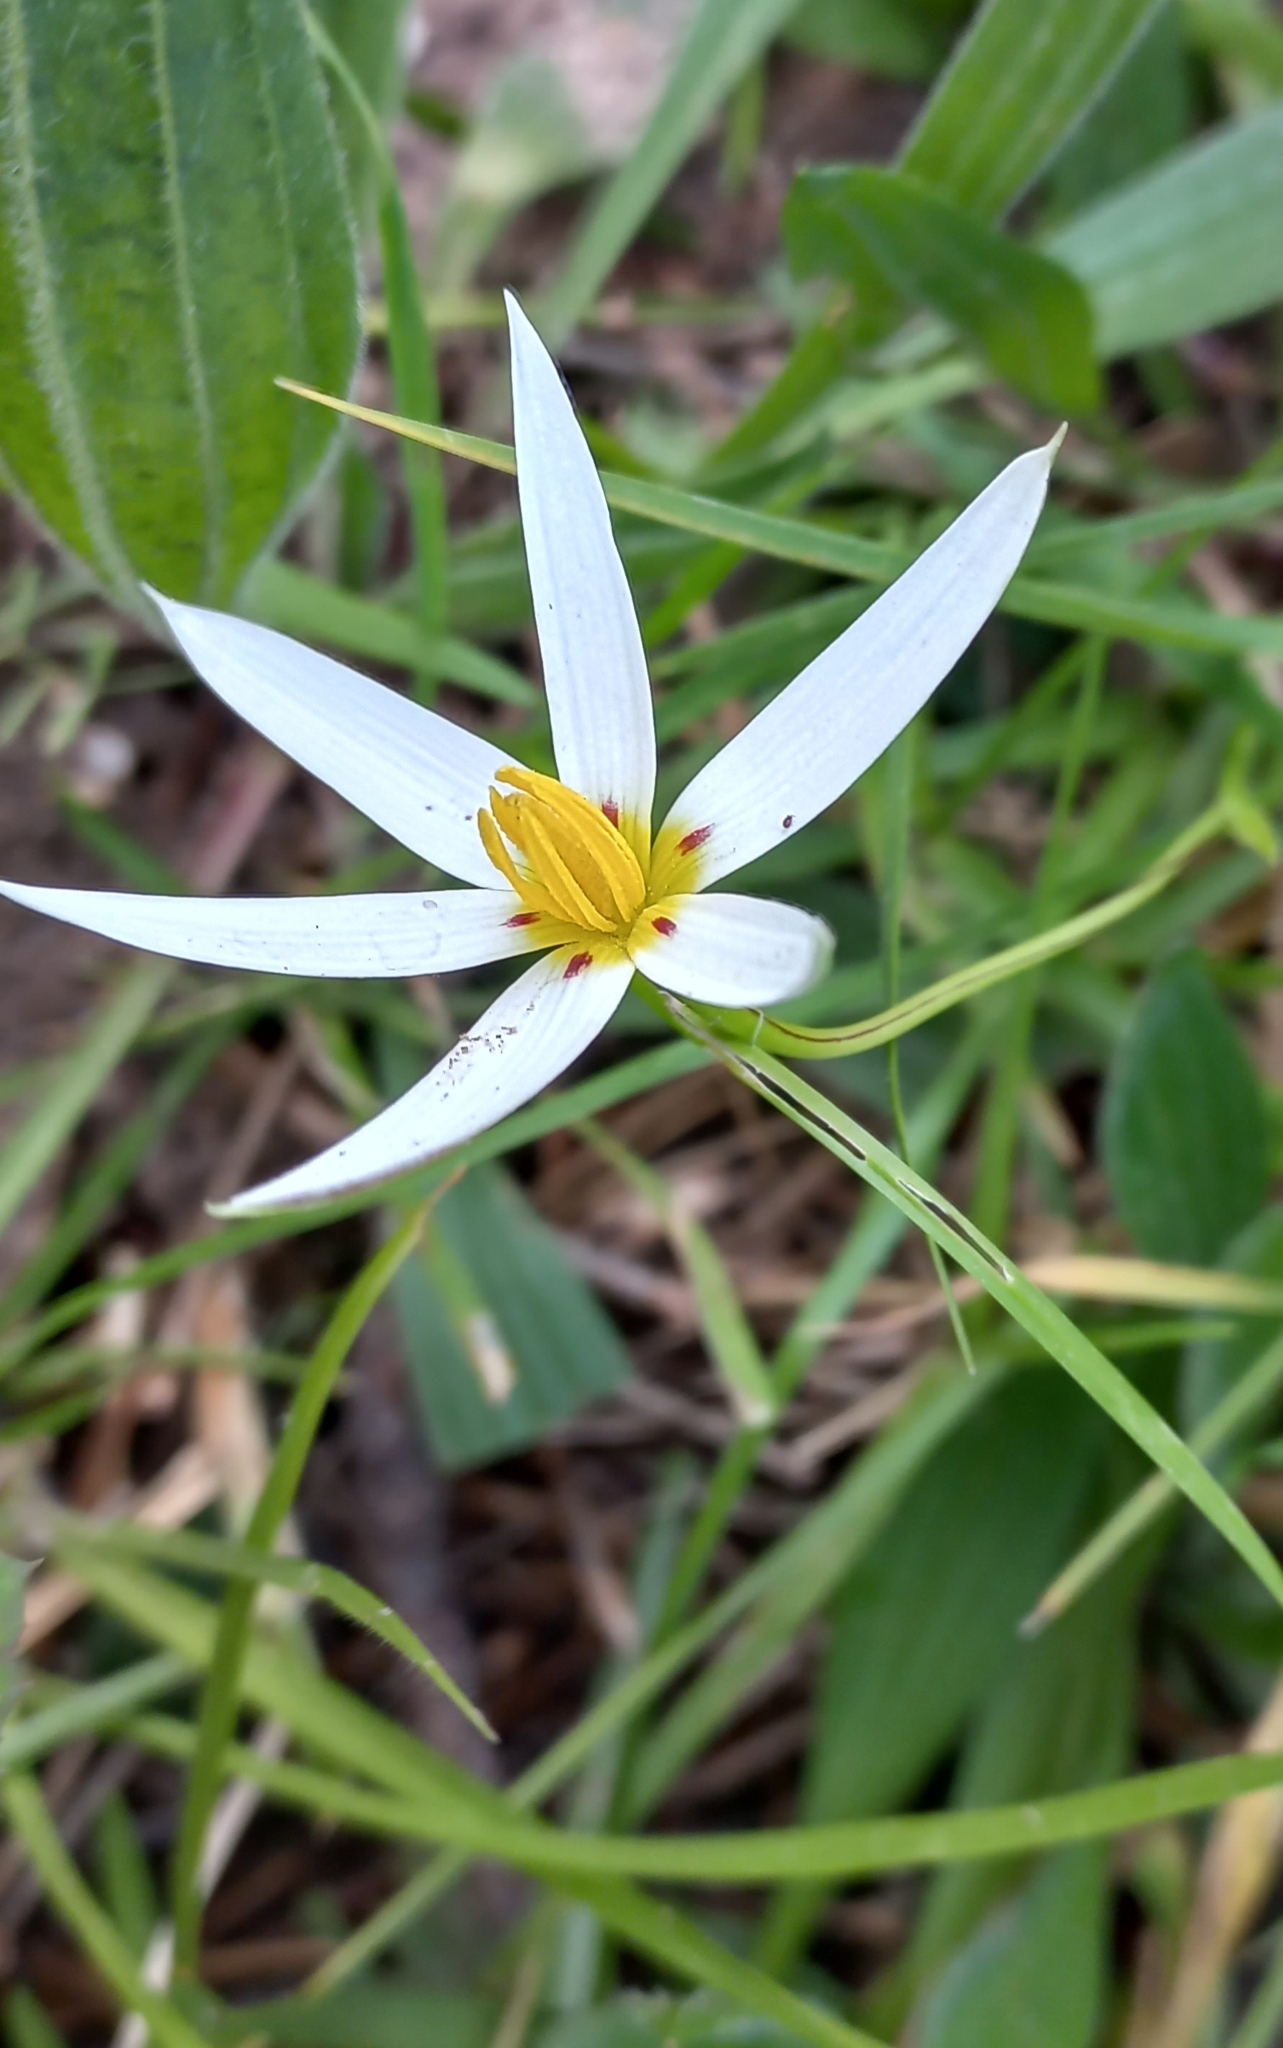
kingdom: Plantae
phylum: Tracheophyta
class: Liliopsida
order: Asparagales
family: Hypoxidaceae
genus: Pauridia
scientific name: Pauridia capensis
